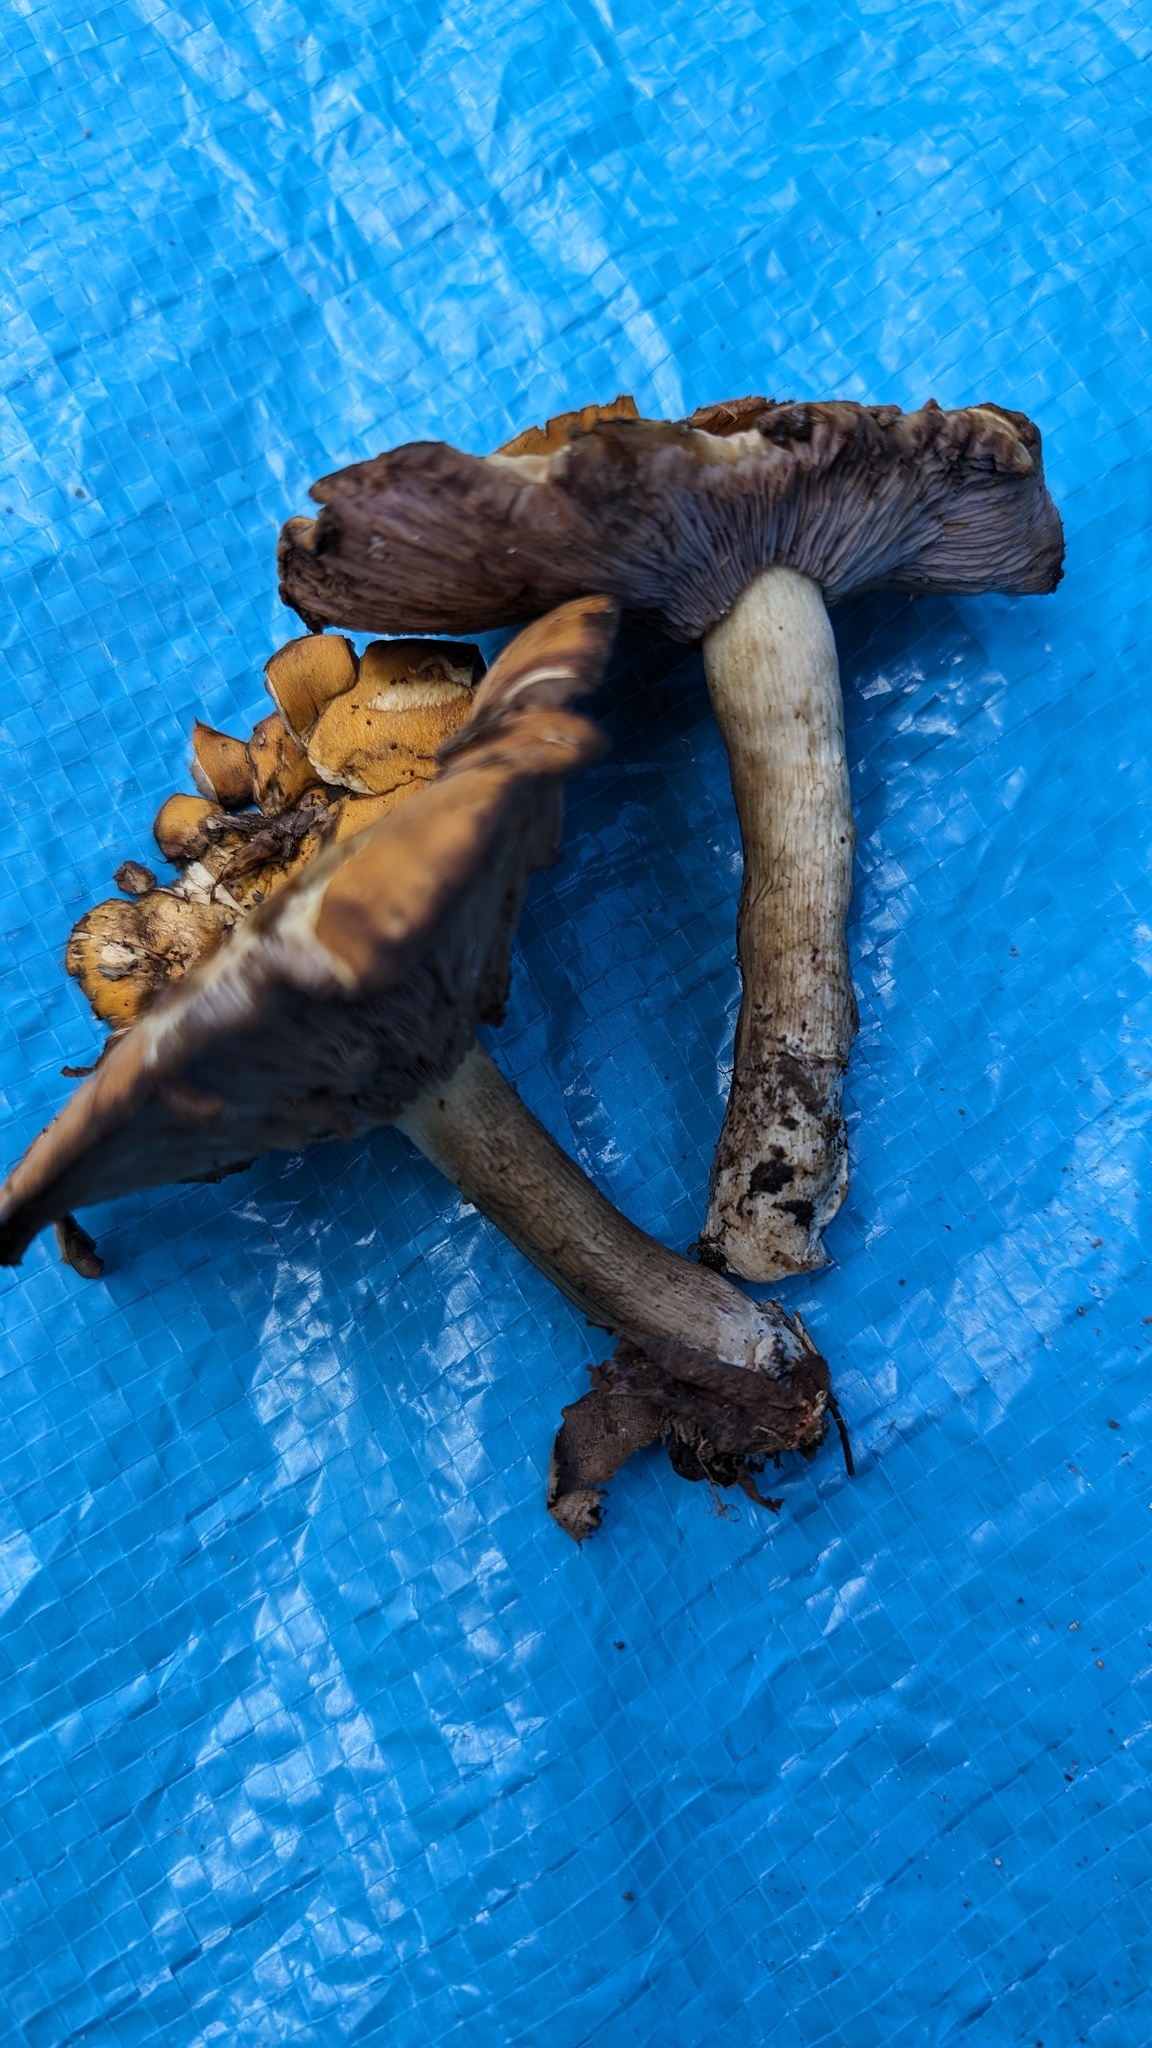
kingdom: Fungi
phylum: Basidiomycota
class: Agaricomycetes
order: Agaricales
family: Tricholomataceae
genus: Tricholosporum
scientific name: Tricholosporum porphyrophyllum
